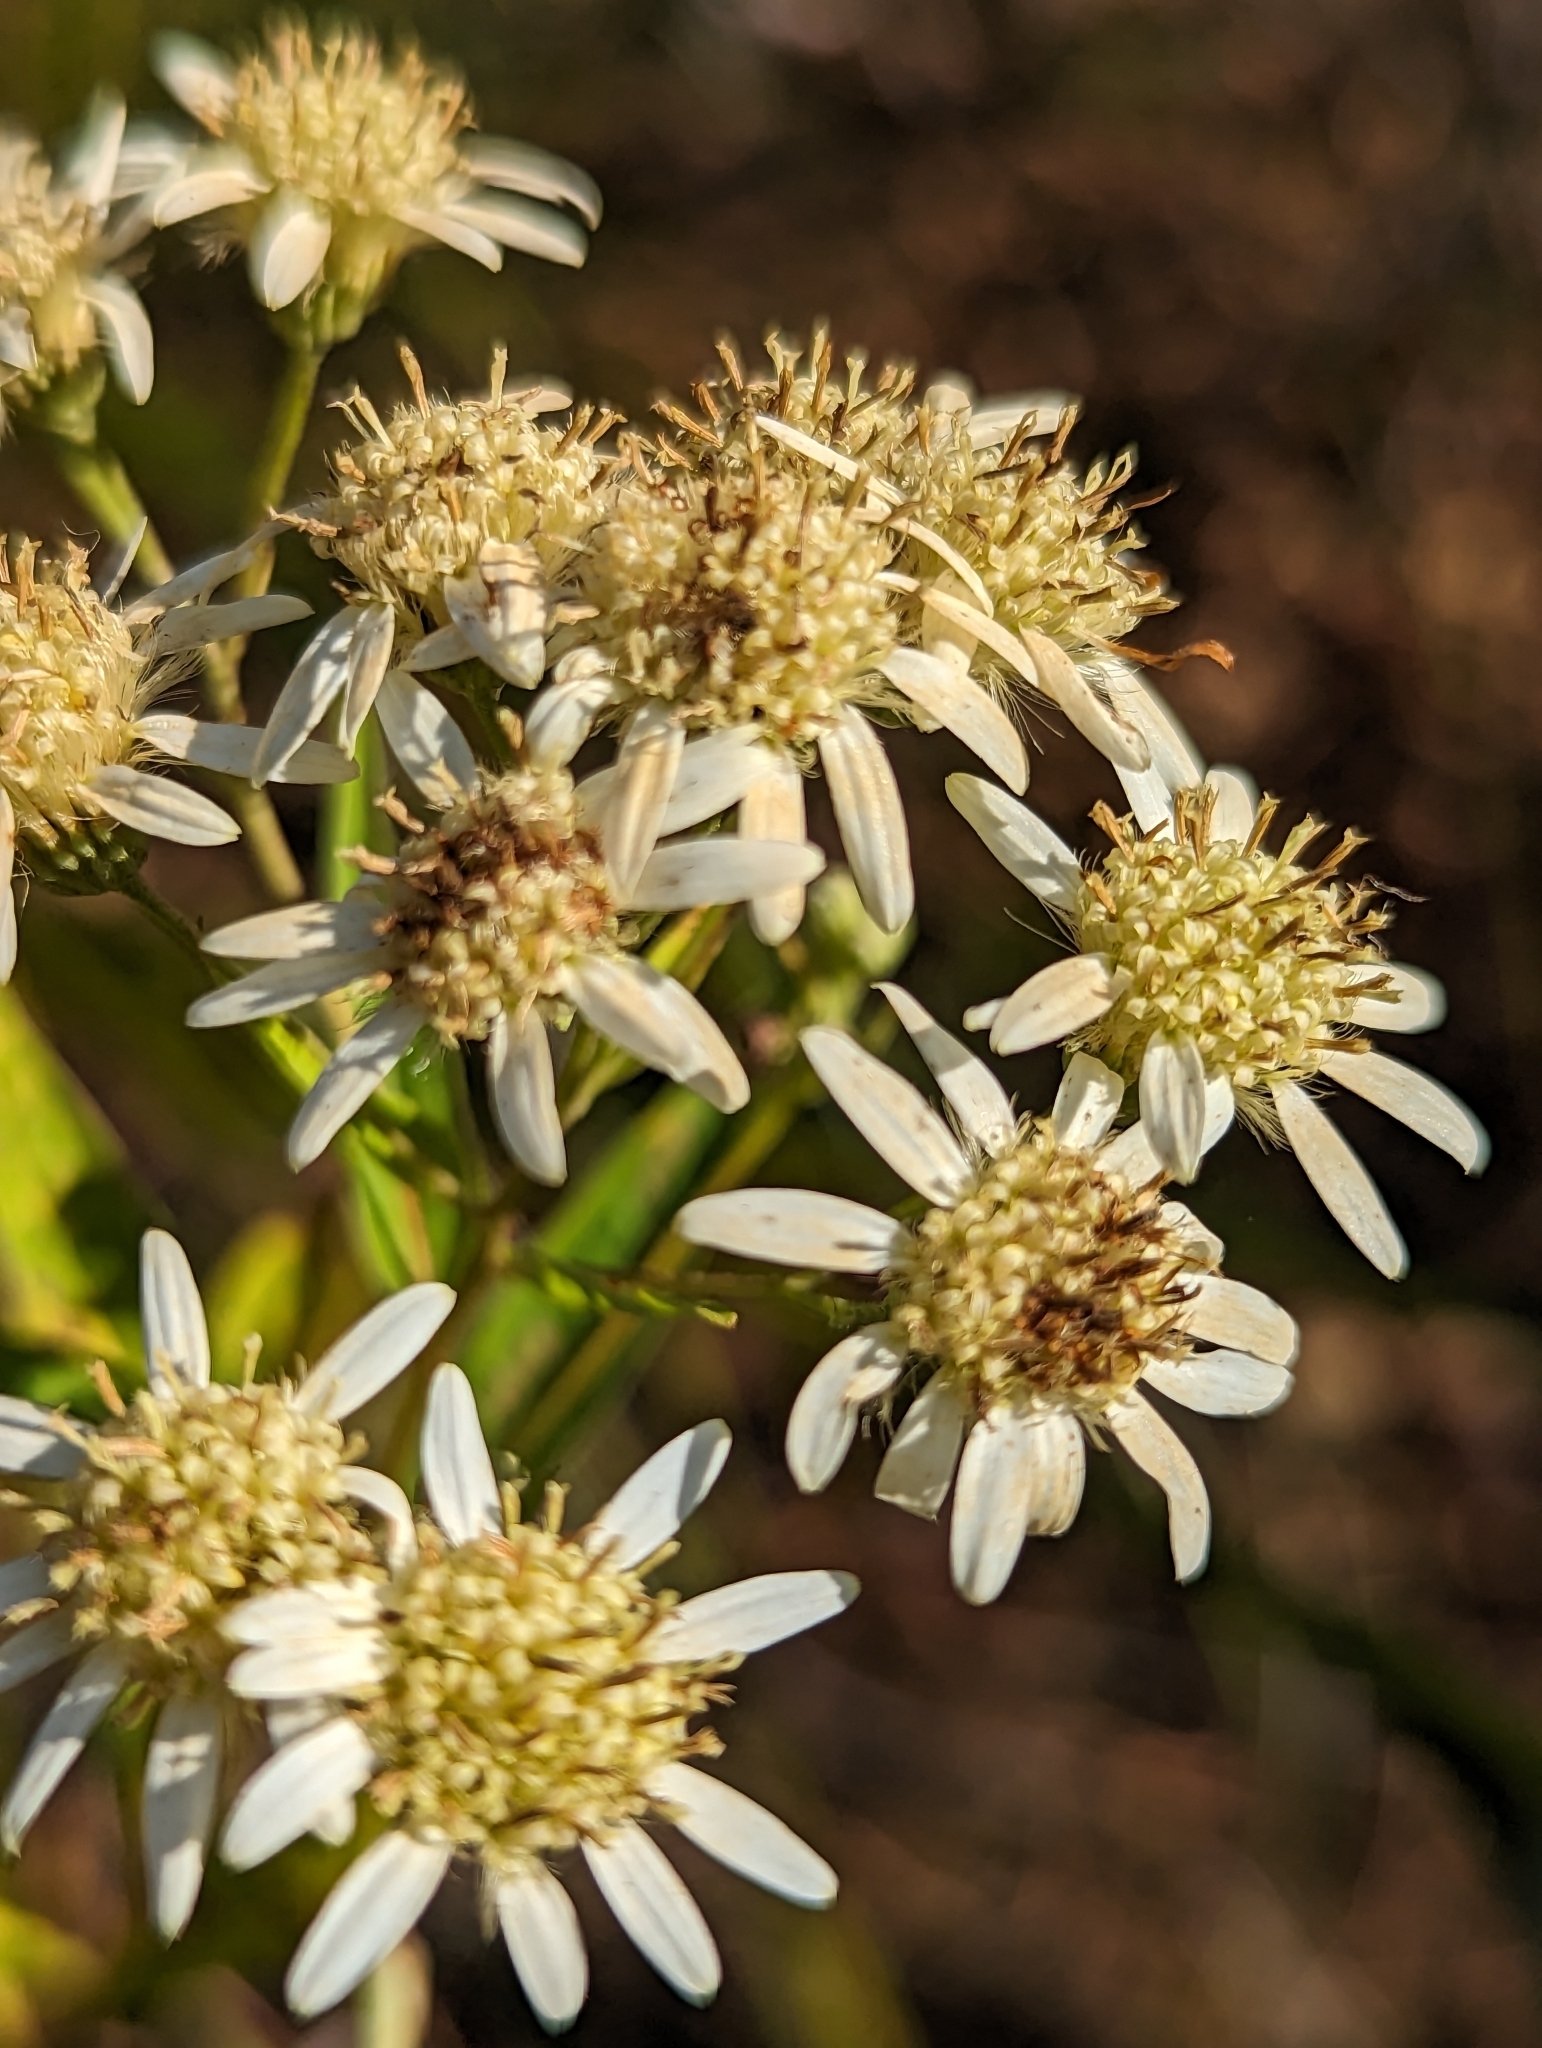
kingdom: Plantae
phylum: Tracheophyta
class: Magnoliopsida
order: Asterales
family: Asteraceae
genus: Doellingeria
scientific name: Doellingeria umbellata
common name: Flat-top white aster
